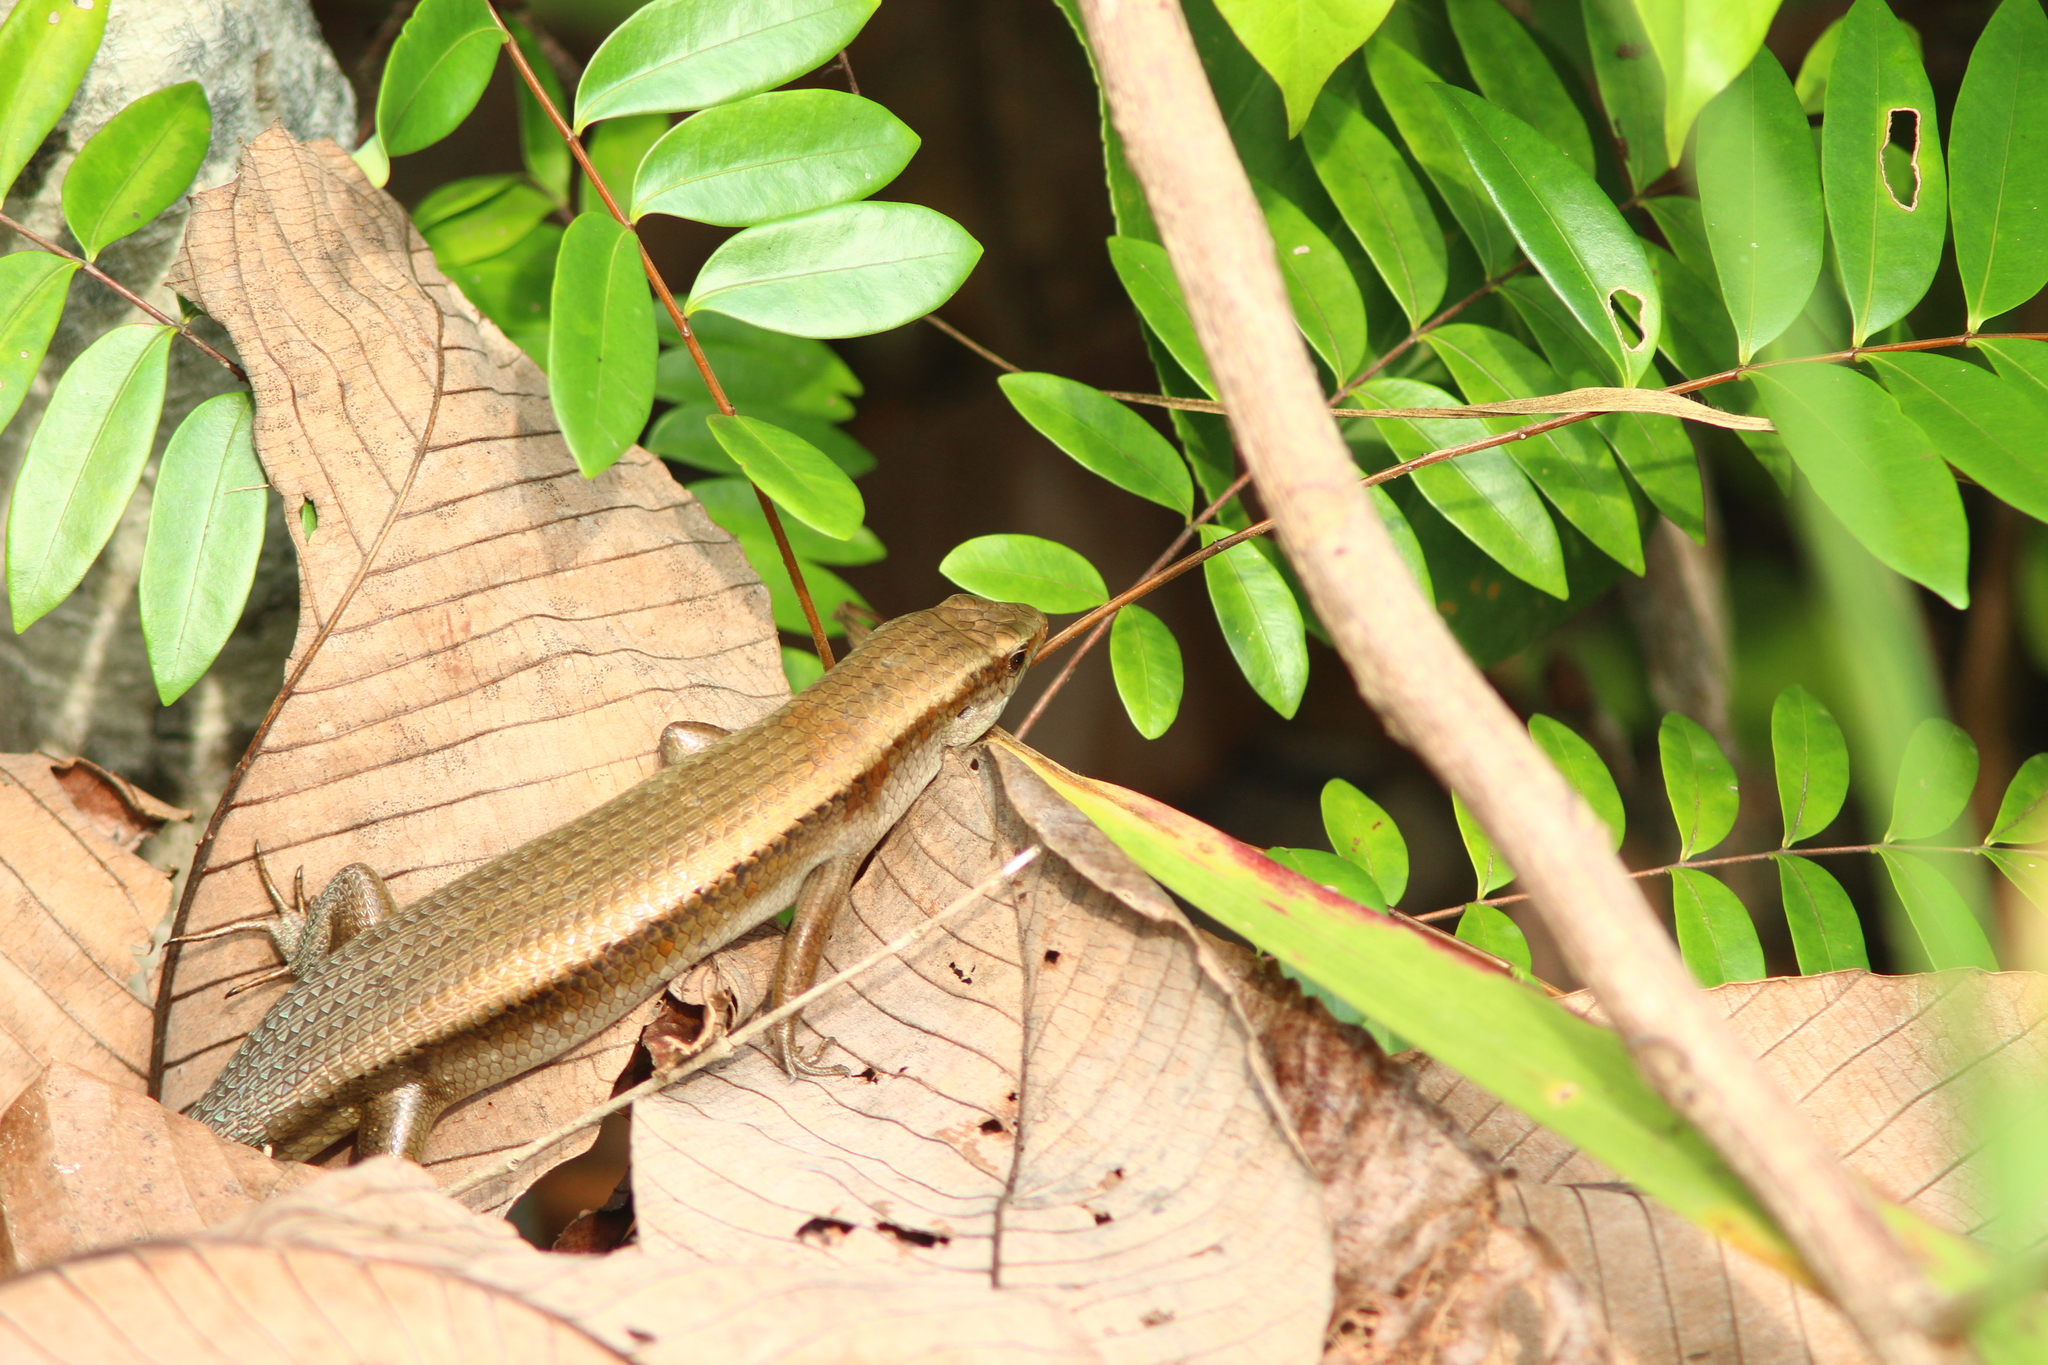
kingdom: Animalia
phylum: Chordata
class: Squamata
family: Scincidae
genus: Eutropis
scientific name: Eutropis multifasciata
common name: Common mabuya
